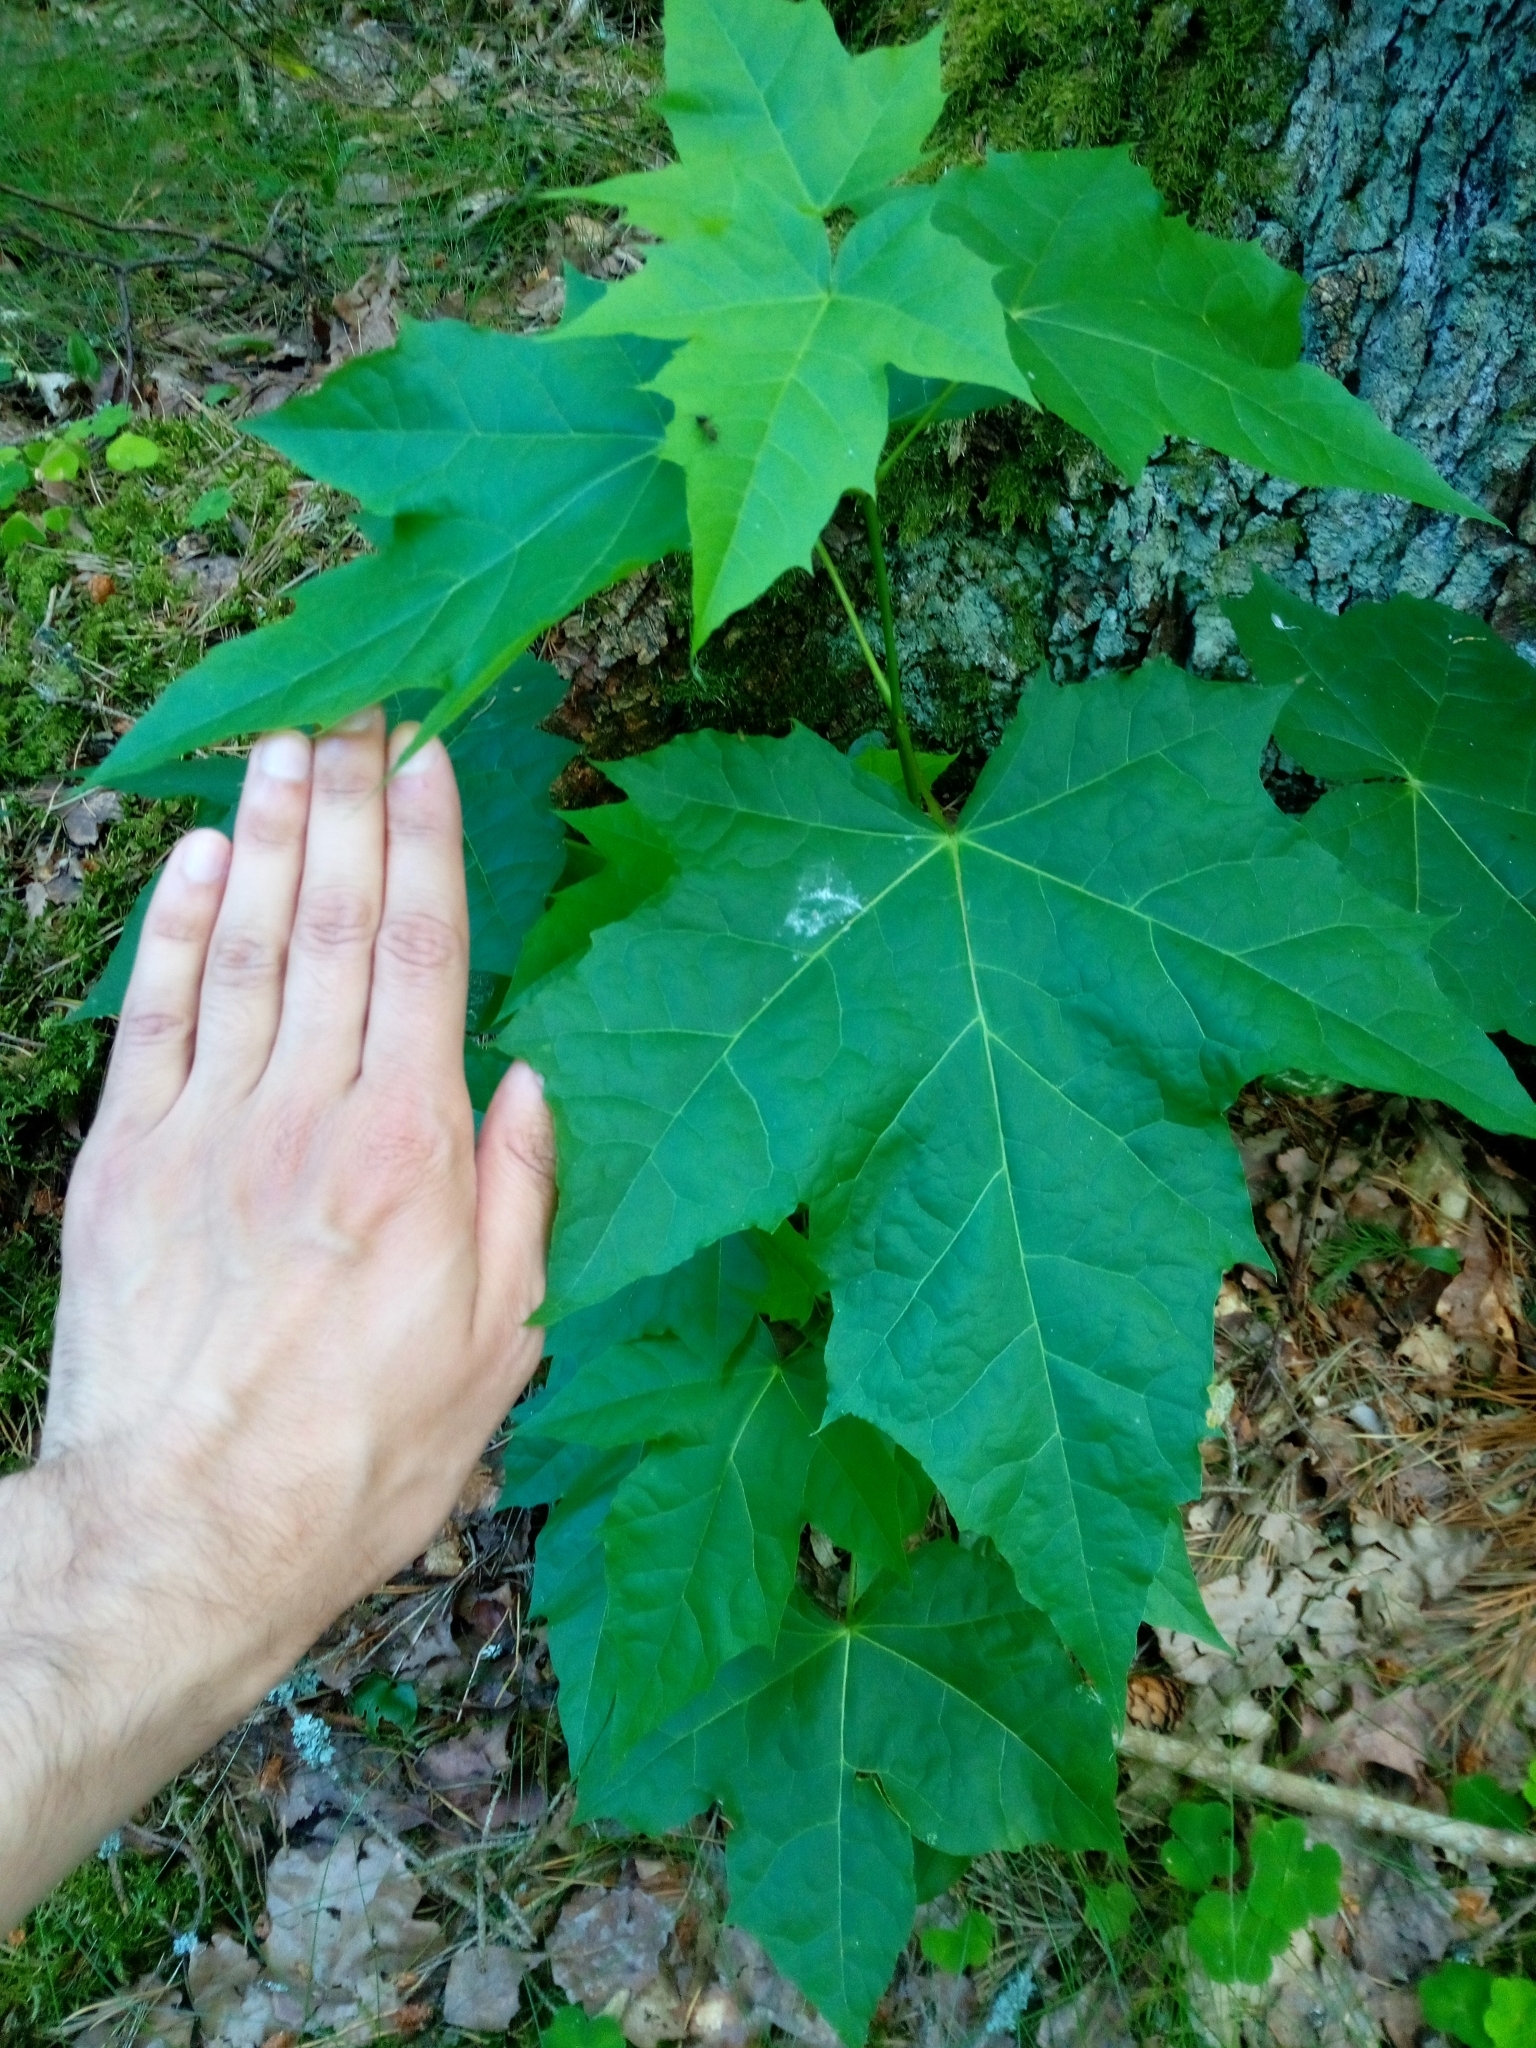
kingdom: Plantae
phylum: Tracheophyta
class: Magnoliopsida
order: Sapindales
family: Sapindaceae
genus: Acer
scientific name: Acer platanoides
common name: Norway maple
